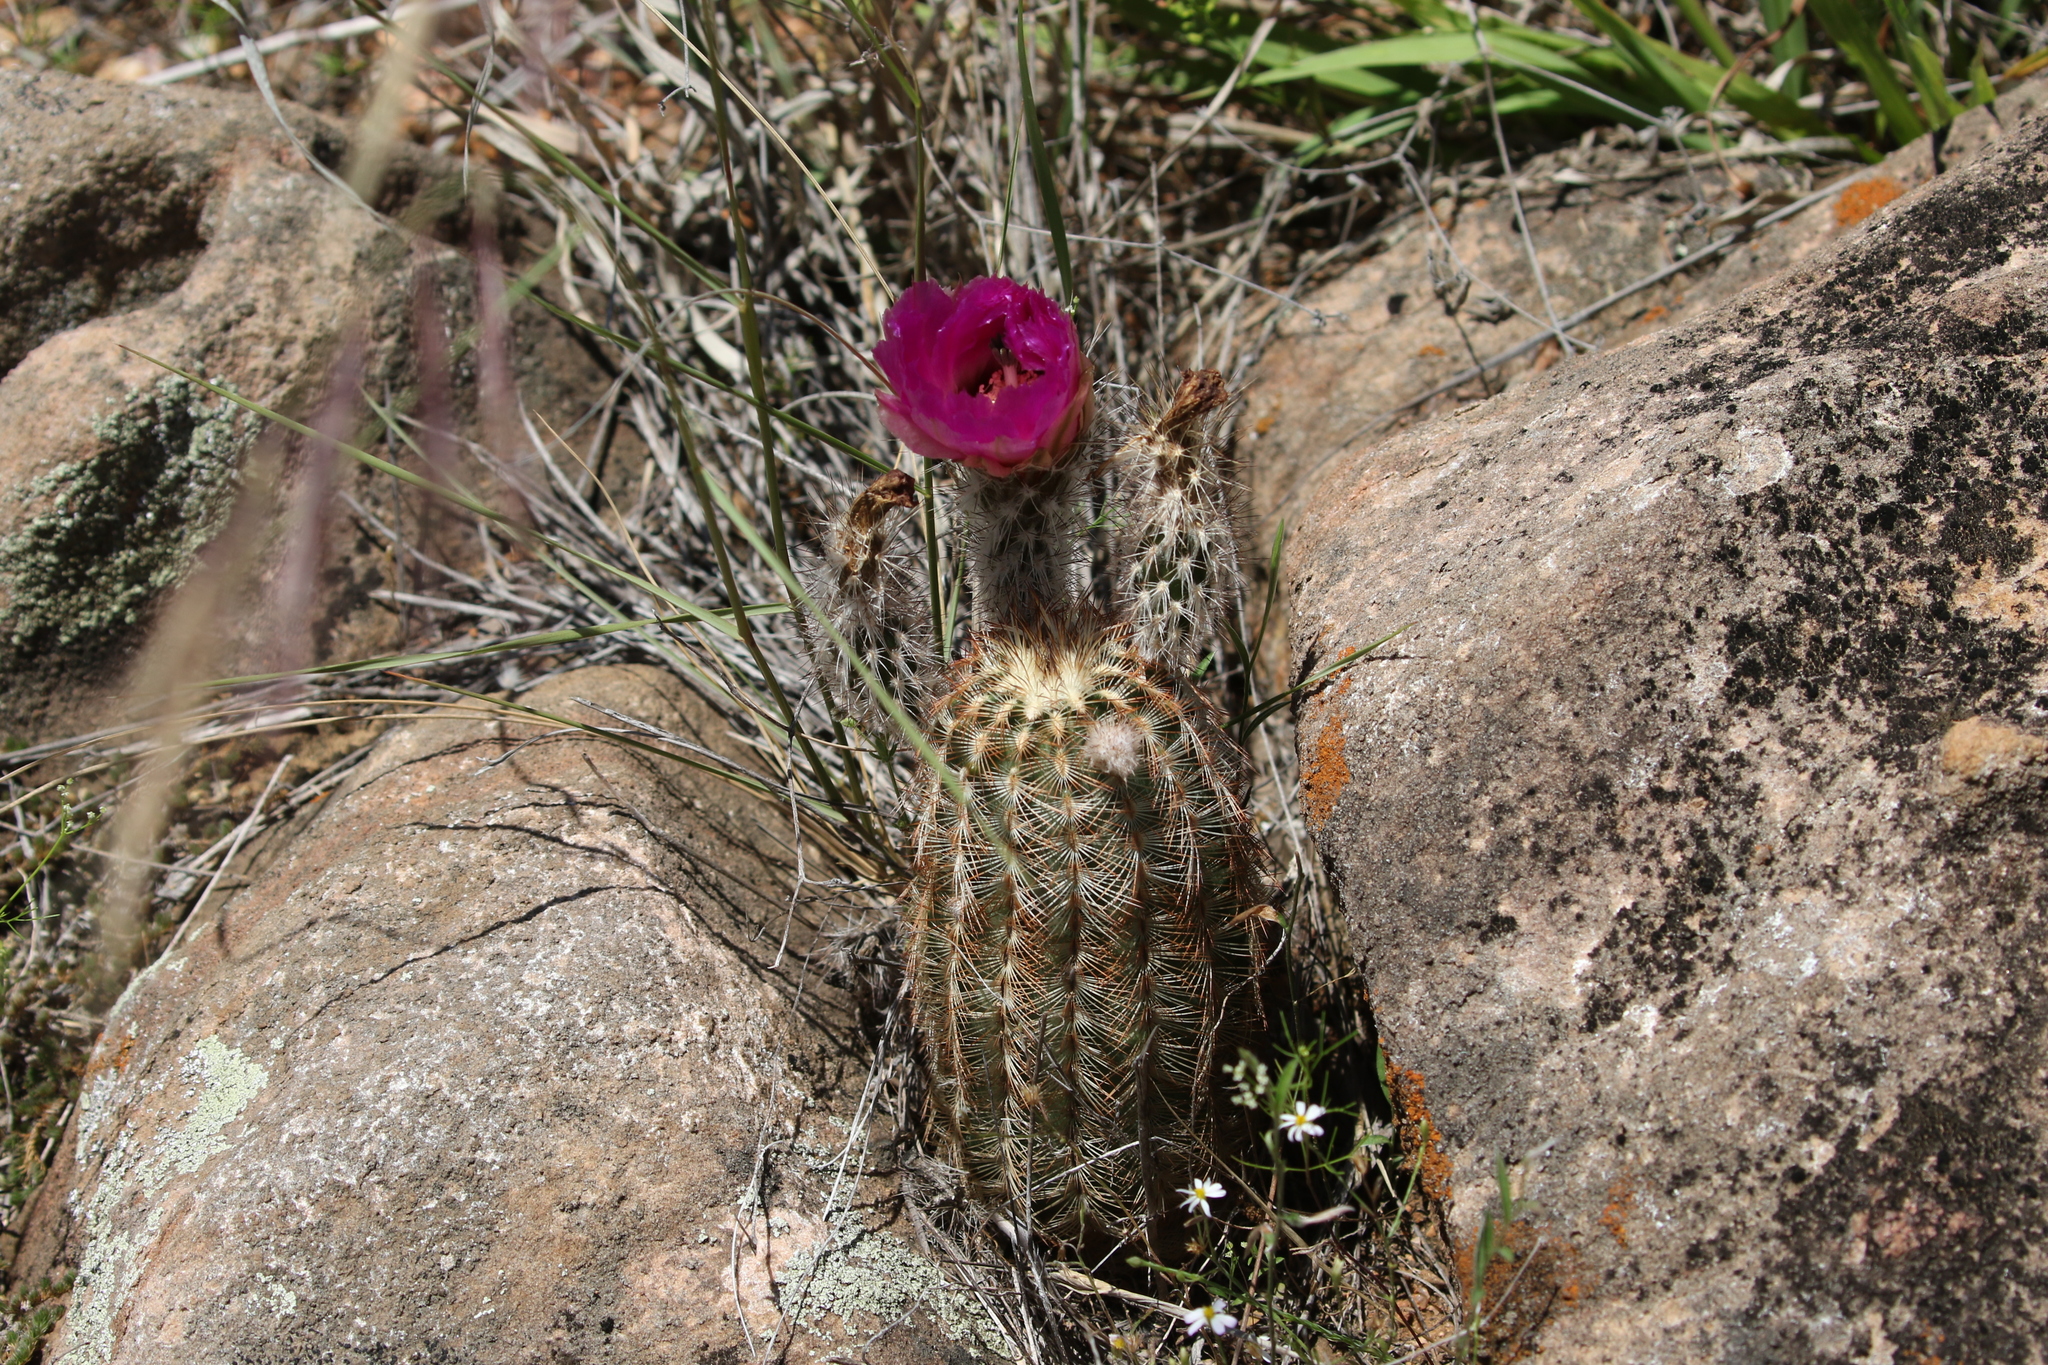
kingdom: Plantae
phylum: Tracheophyta
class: Magnoliopsida
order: Caryophyllales
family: Cactaceae
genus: Echinocereus
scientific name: Echinocereus reichenbachii
